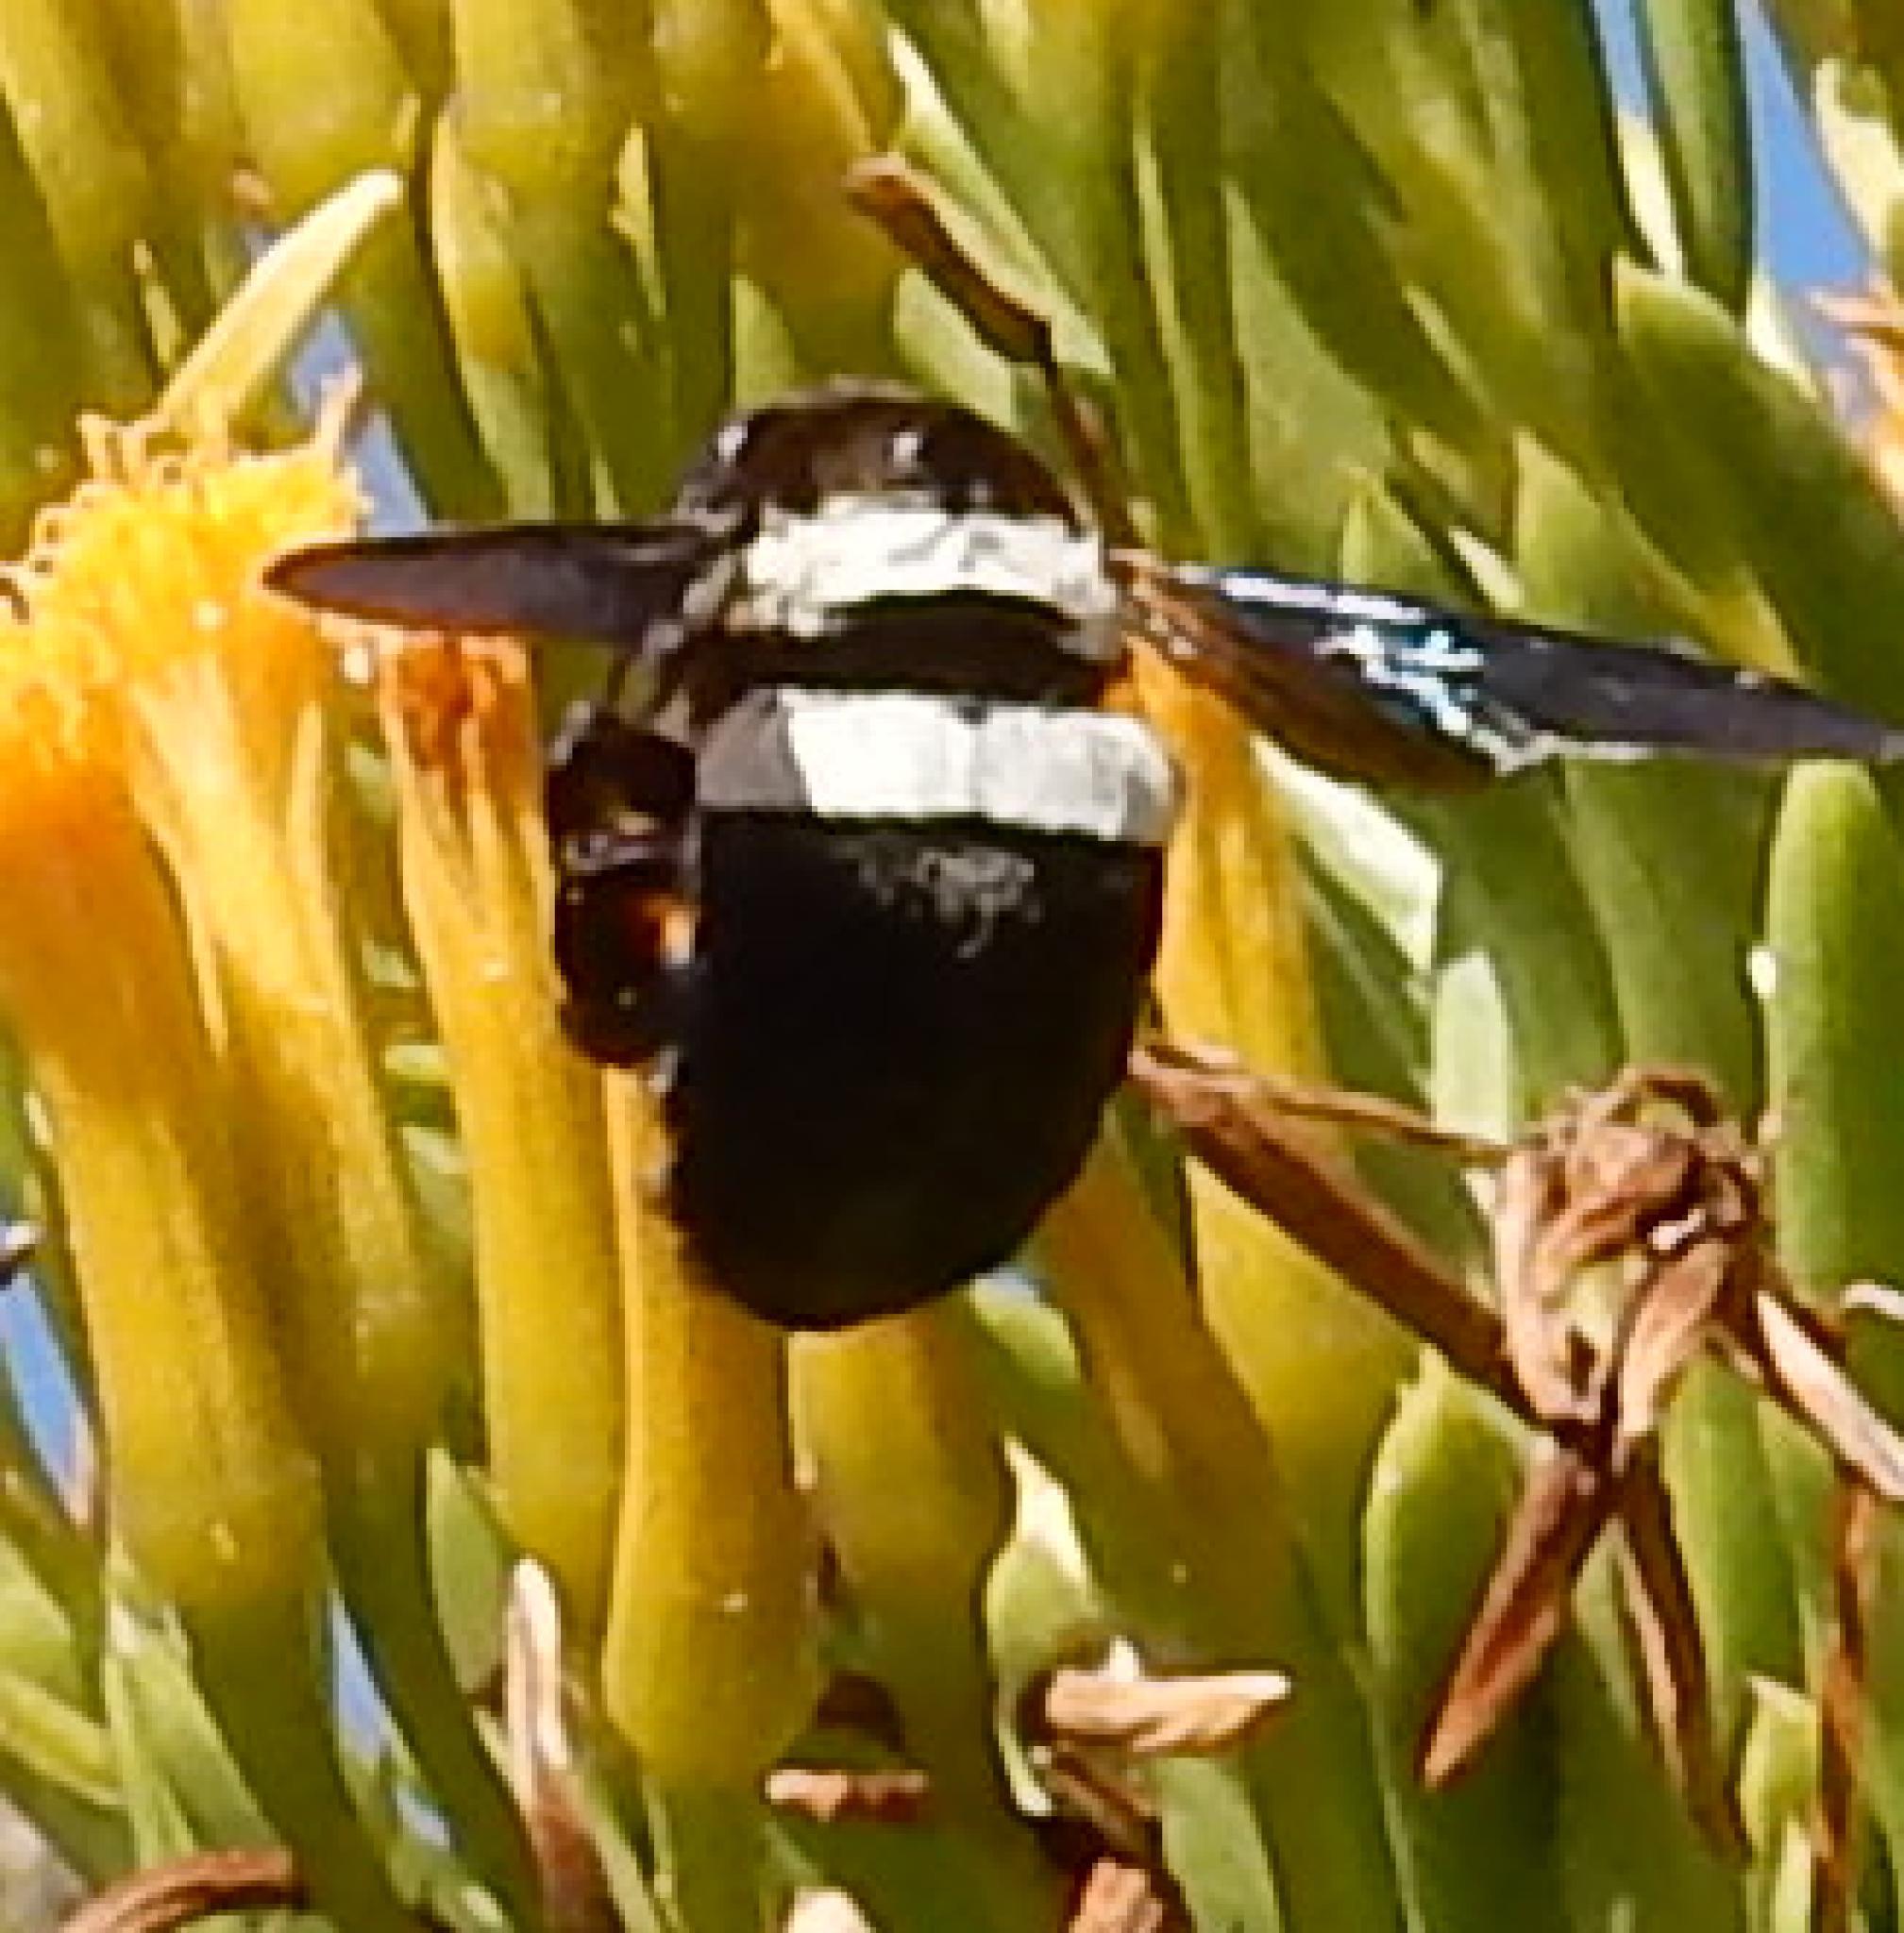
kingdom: Animalia
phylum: Arthropoda
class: Insecta
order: Hymenoptera
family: Apidae
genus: Xylocopa
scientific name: Xylocopa caffra
